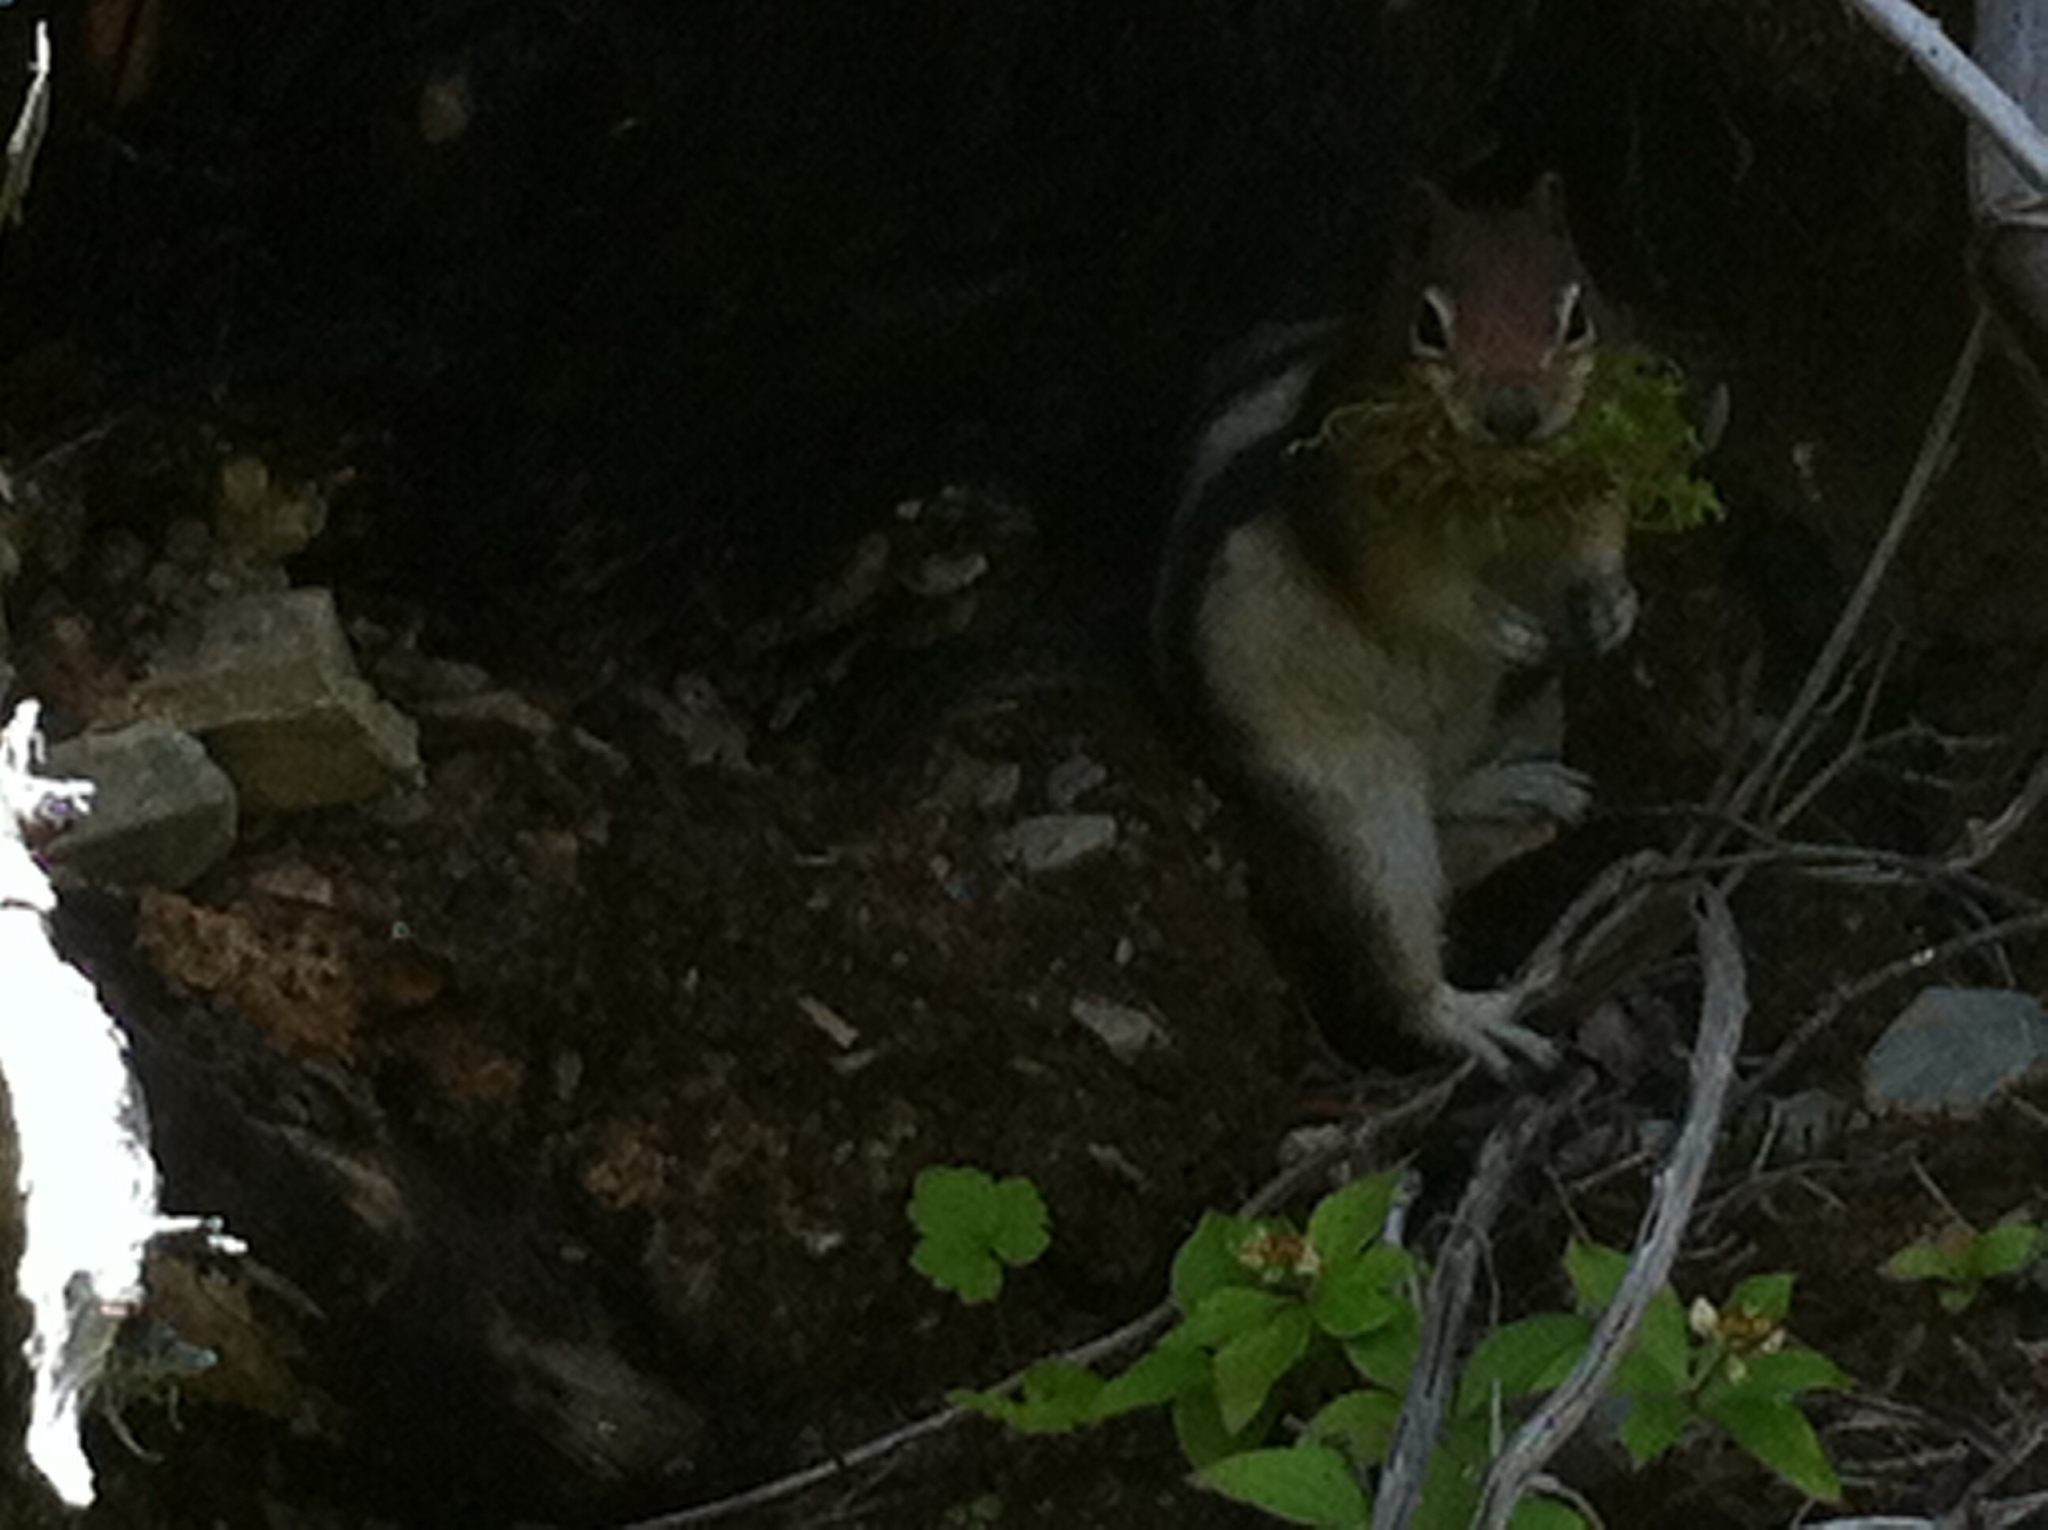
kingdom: Animalia
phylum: Chordata
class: Mammalia
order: Rodentia
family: Sciuridae
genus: Callospermophilus
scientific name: Callospermophilus lateralis
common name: Golden-mantled ground squirrel
